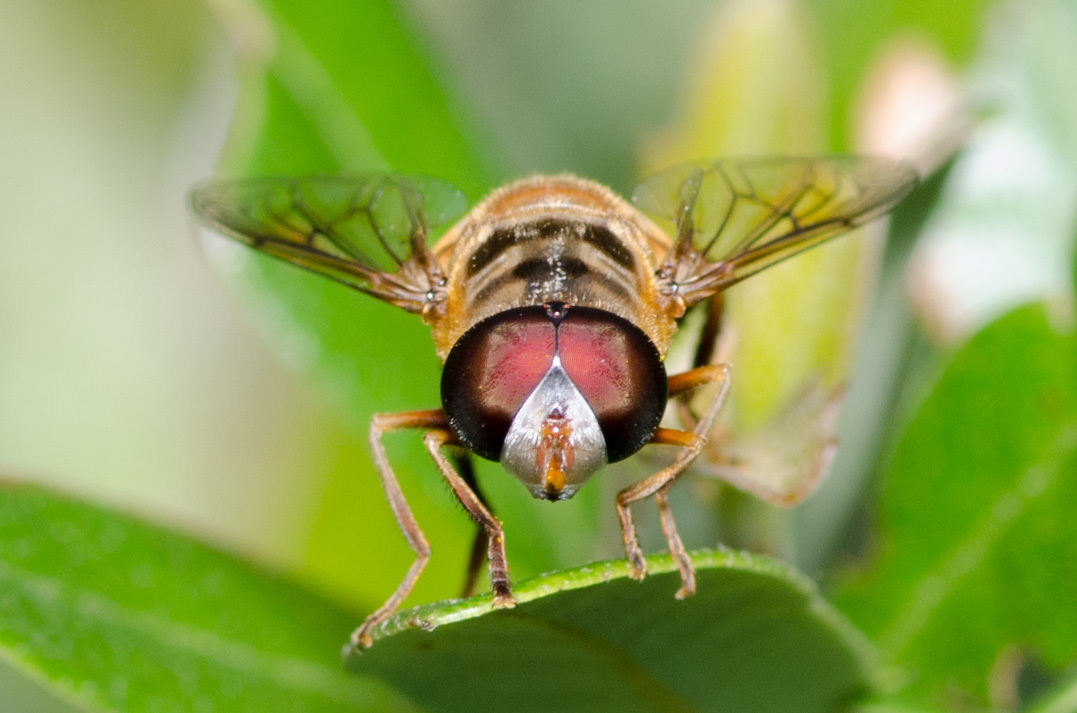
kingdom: Animalia
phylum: Arthropoda
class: Insecta
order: Diptera
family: Syrphidae
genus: Palpada
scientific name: Palpada vinetorum
